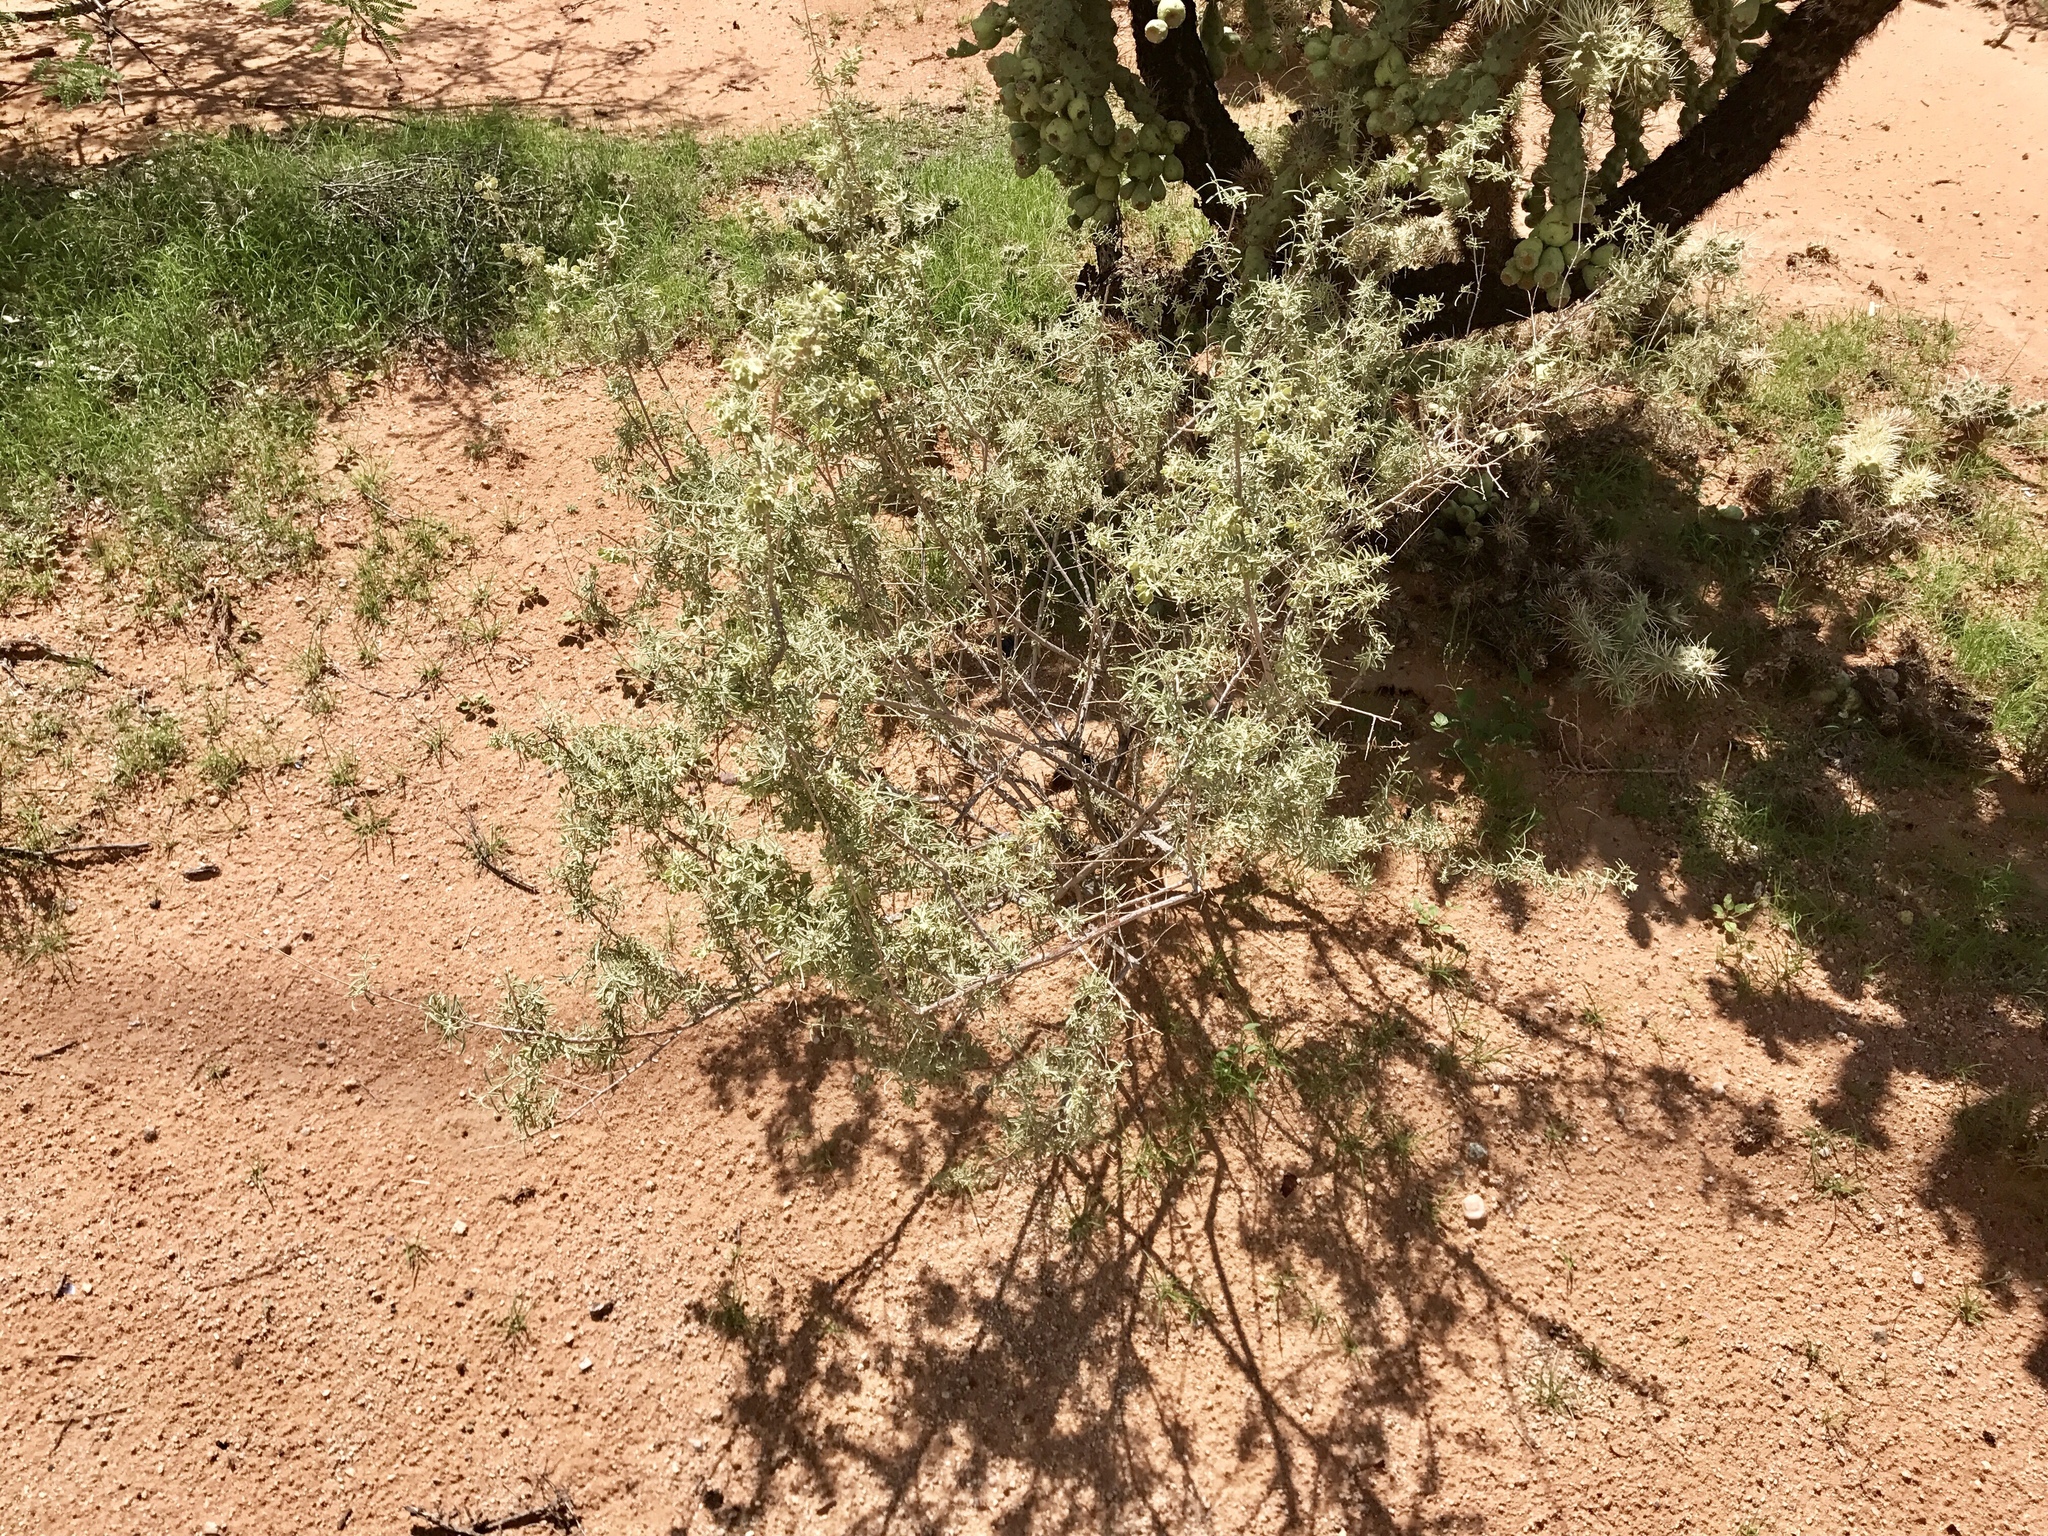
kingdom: Plantae
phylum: Tracheophyta
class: Magnoliopsida
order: Caryophyllales
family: Amaranthaceae
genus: Atriplex
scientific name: Atriplex canescens
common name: Four-wing saltbush
